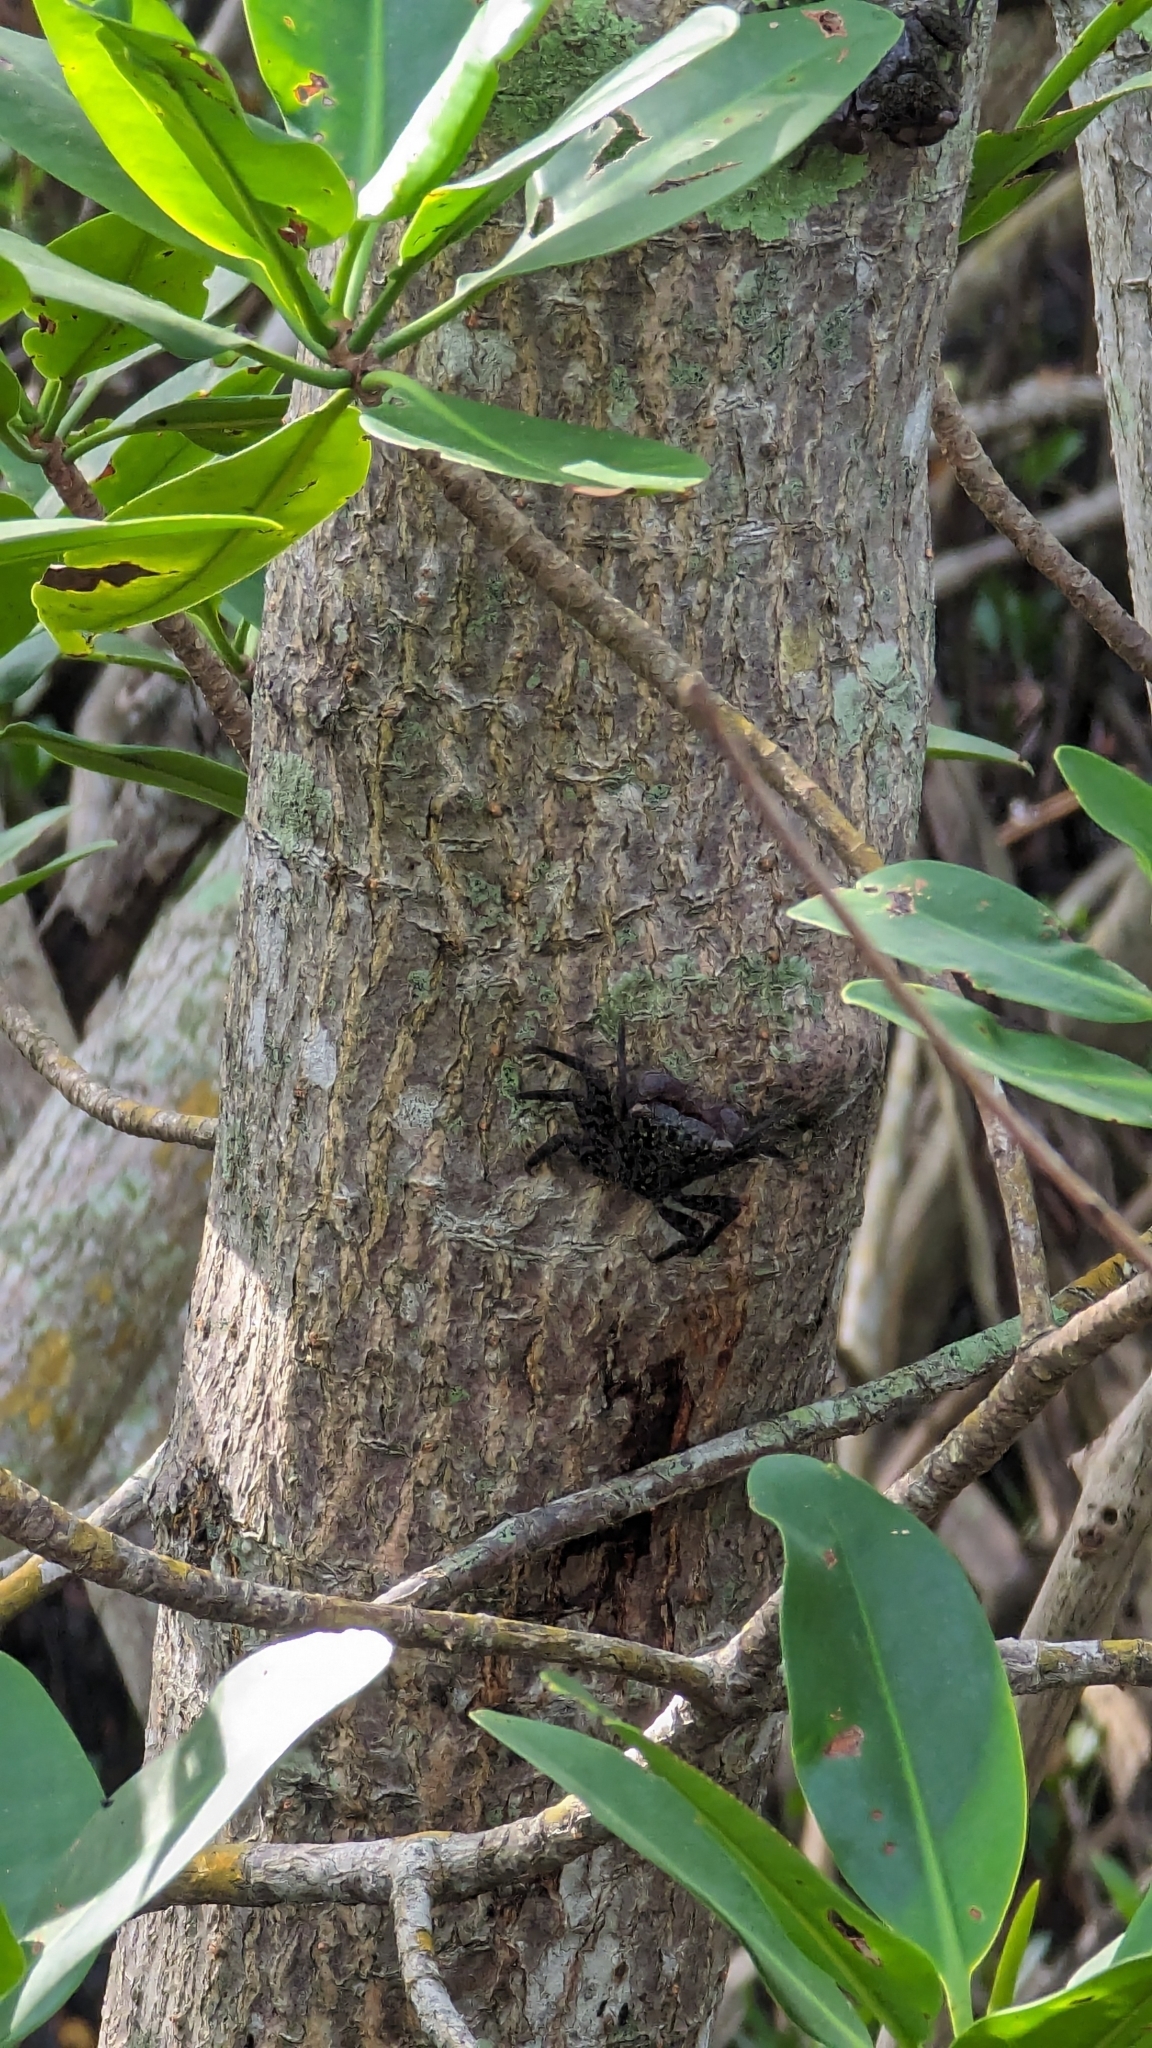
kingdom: Animalia
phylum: Arthropoda
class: Malacostraca
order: Decapoda
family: Sesarmidae
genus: Aratus
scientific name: Aratus pisonii
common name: Mangrove crab
